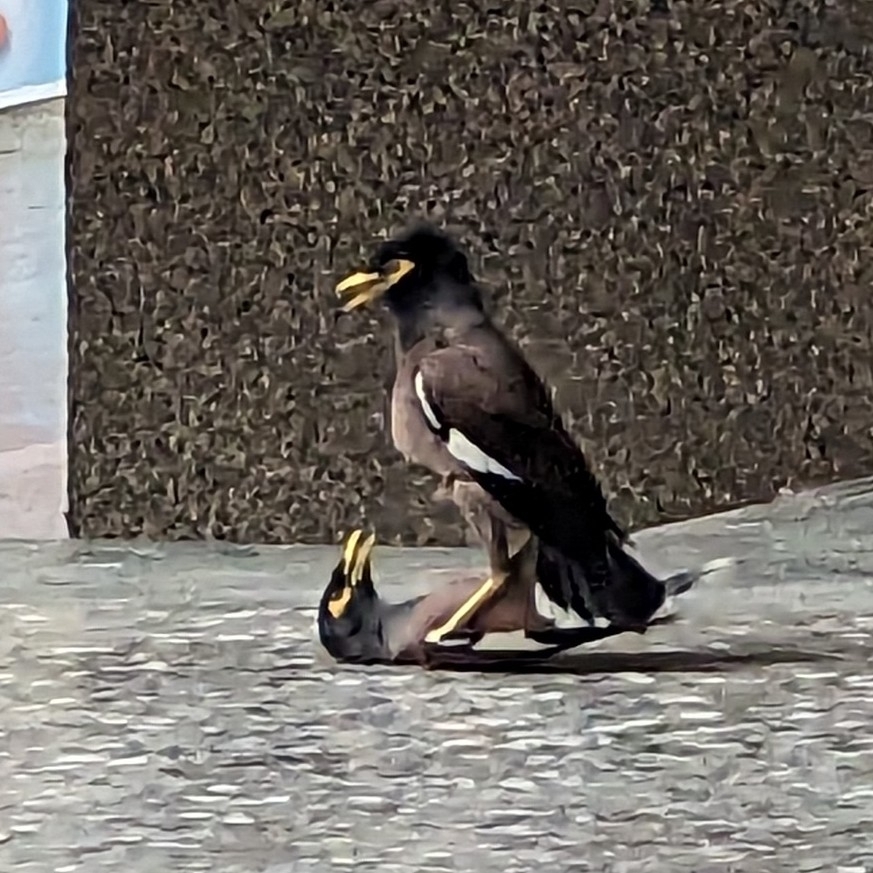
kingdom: Animalia
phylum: Chordata
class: Aves
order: Passeriformes
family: Sturnidae
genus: Acridotheres
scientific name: Acridotheres tristis
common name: Common myna
